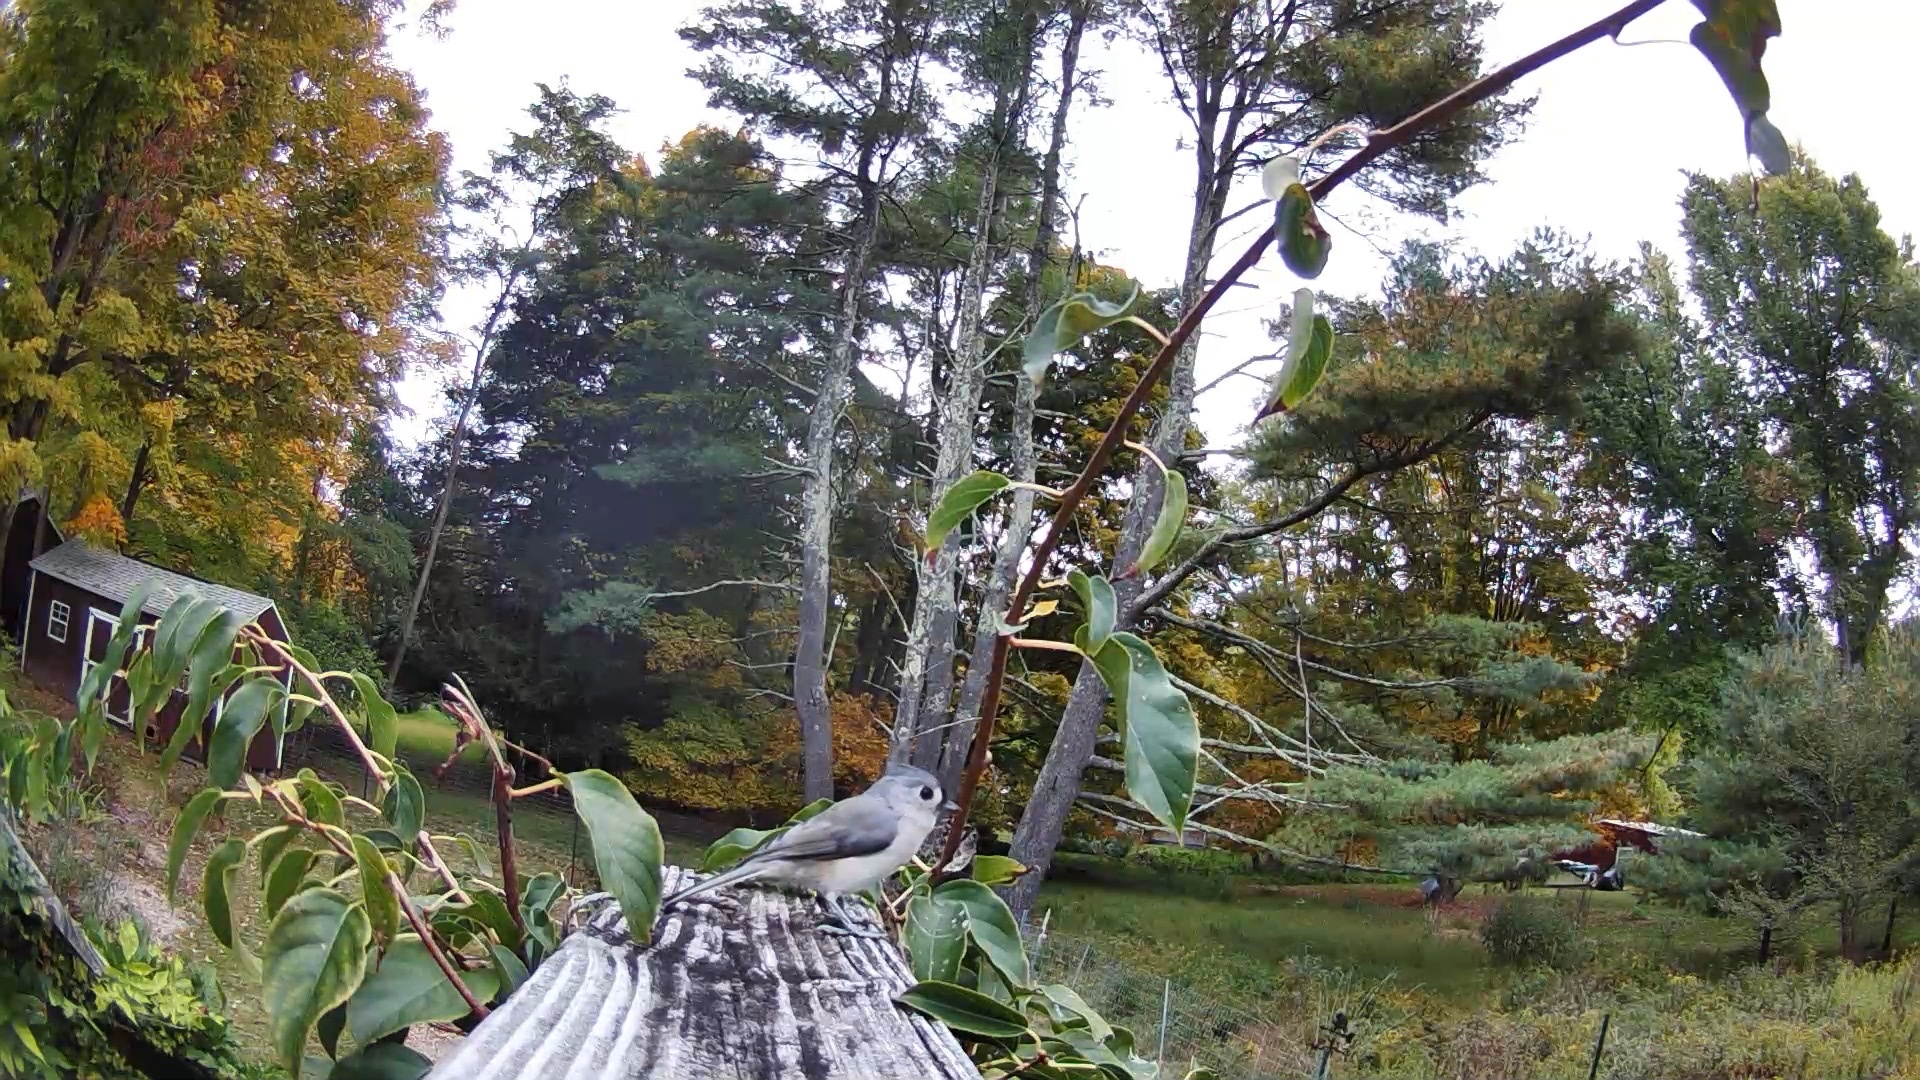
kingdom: Animalia
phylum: Chordata
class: Aves
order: Passeriformes
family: Paridae
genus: Baeolophus
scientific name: Baeolophus bicolor
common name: Tufted titmouse
